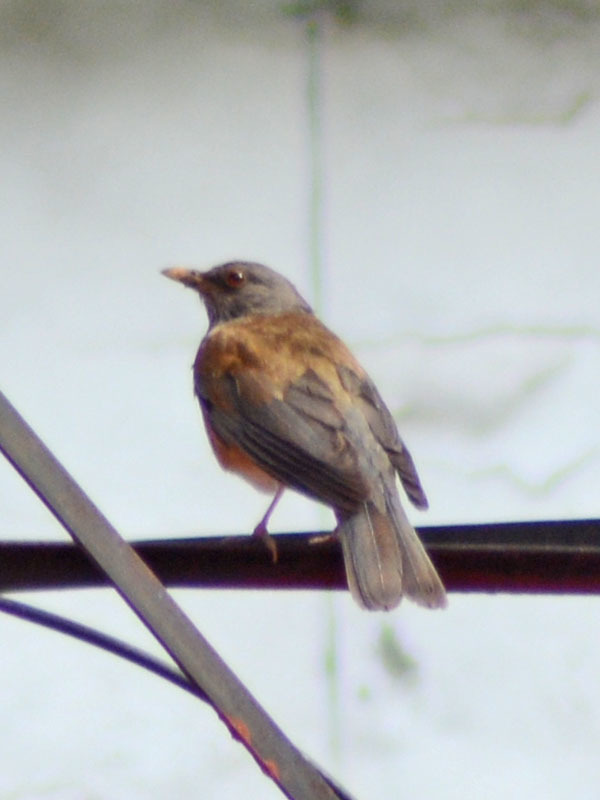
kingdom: Animalia
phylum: Chordata
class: Aves
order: Passeriformes
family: Turdidae
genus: Turdus
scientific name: Turdus rufopalliatus
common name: Rufous-backed robin
